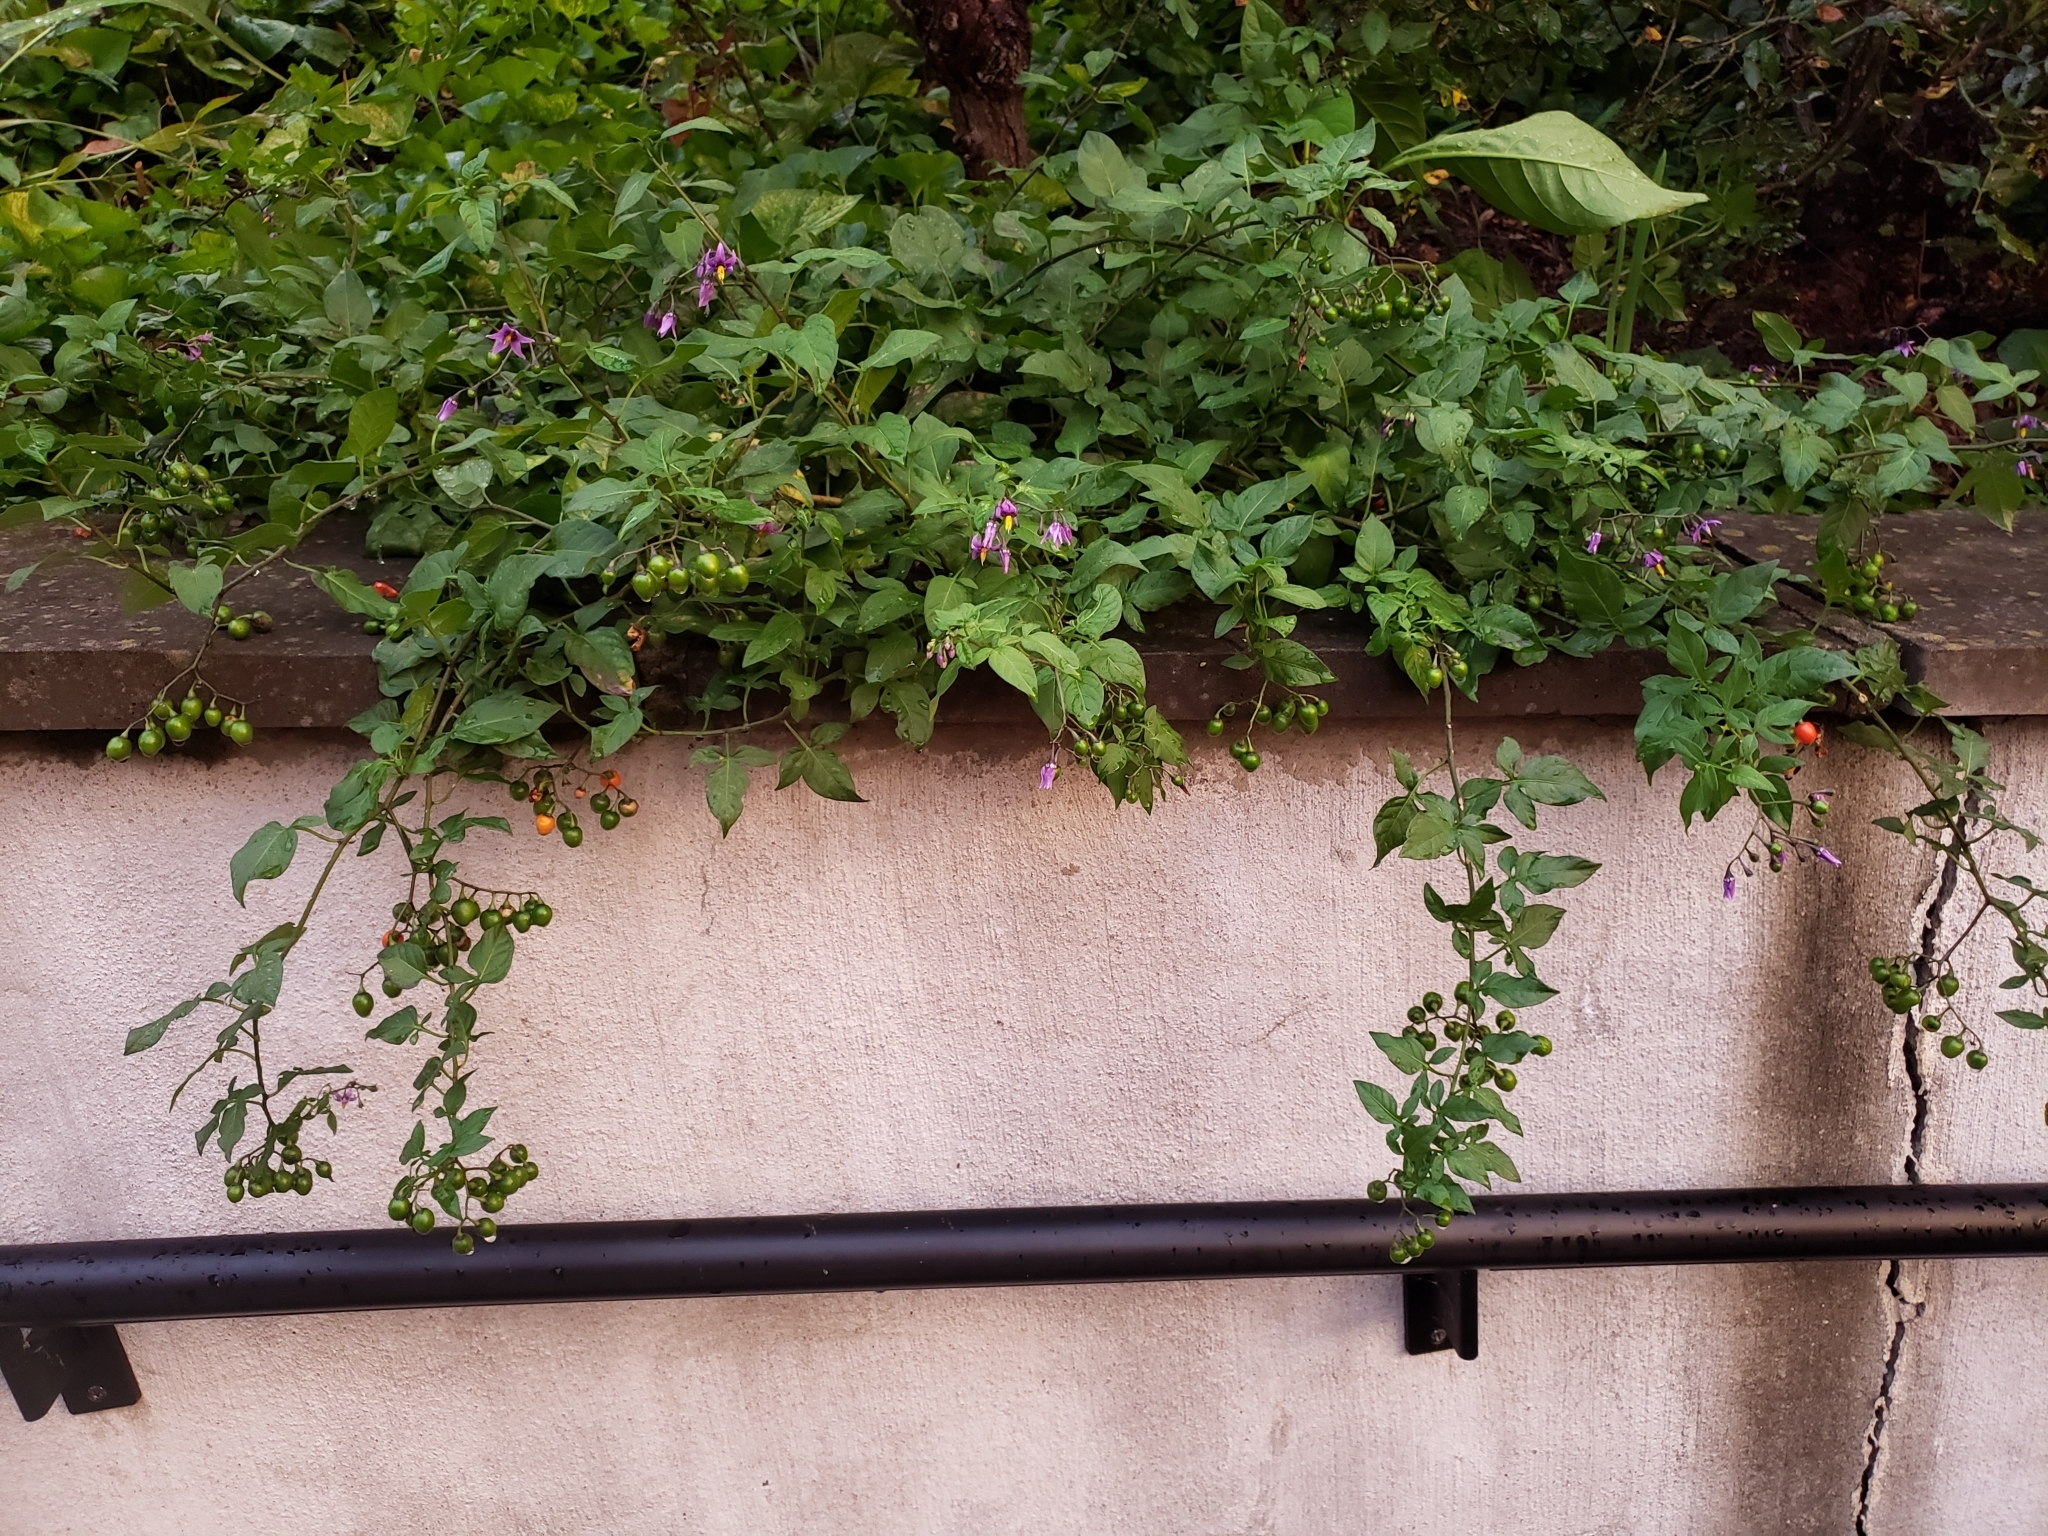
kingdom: Plantae
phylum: Tracheophyta
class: Magnoliopsida
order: Solanales
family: Solanaceae
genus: Solanum
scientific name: Solanum dulcamara
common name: Climbing nightshade
